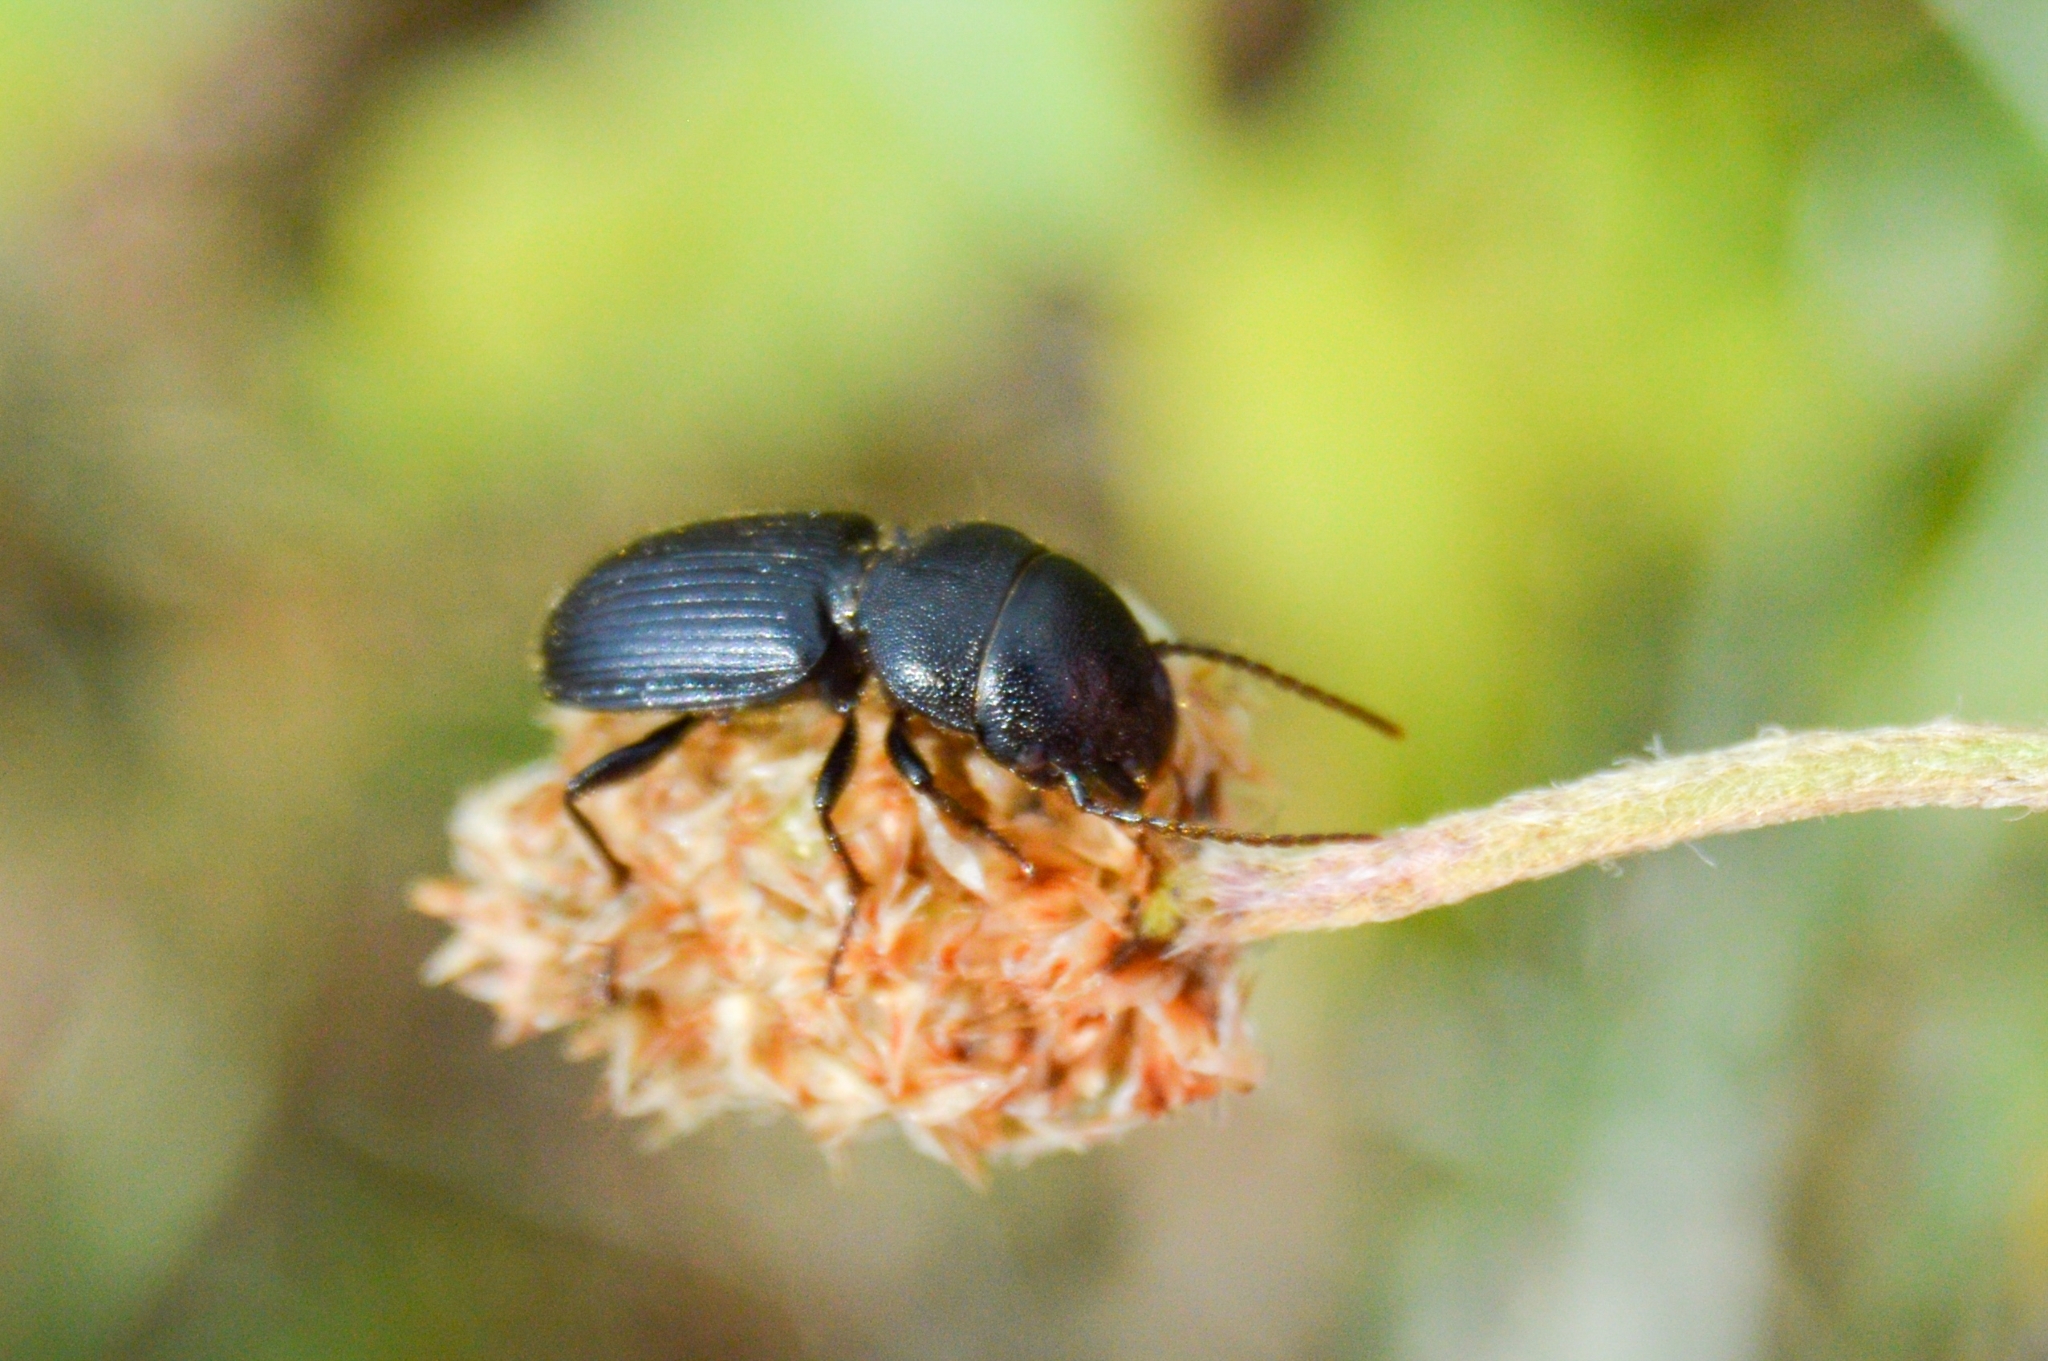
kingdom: Animalia
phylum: Arthropoda
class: Insecta
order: Coleoptera
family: Carabidae
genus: Dixus
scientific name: Dixus obscurus
